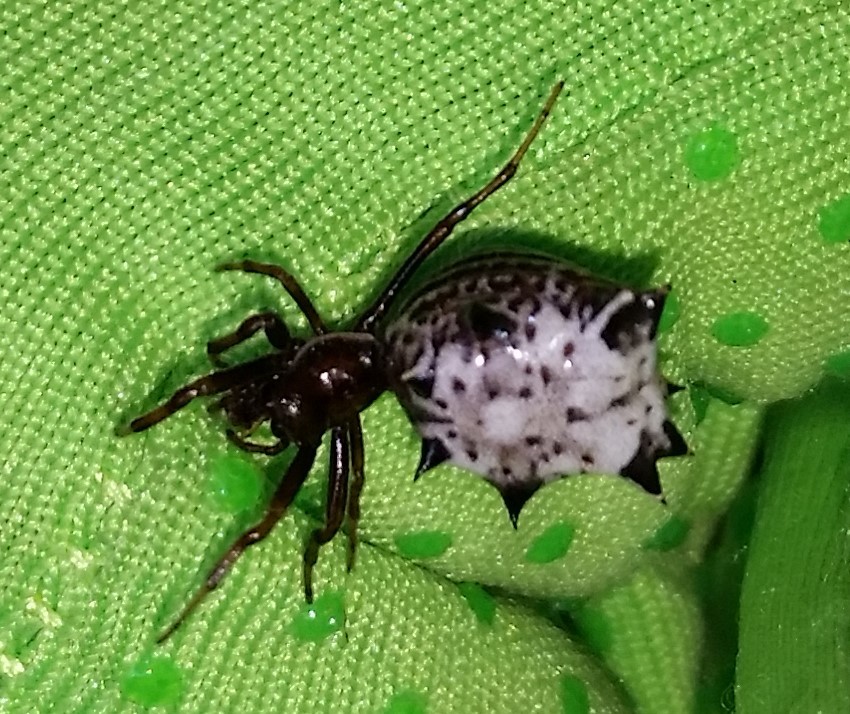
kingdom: Animalia
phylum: Arthropoda
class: Arachnida
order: Araneae
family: Araneidae
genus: Micrathena
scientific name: Micrathena gracilis
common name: Orb weavers
